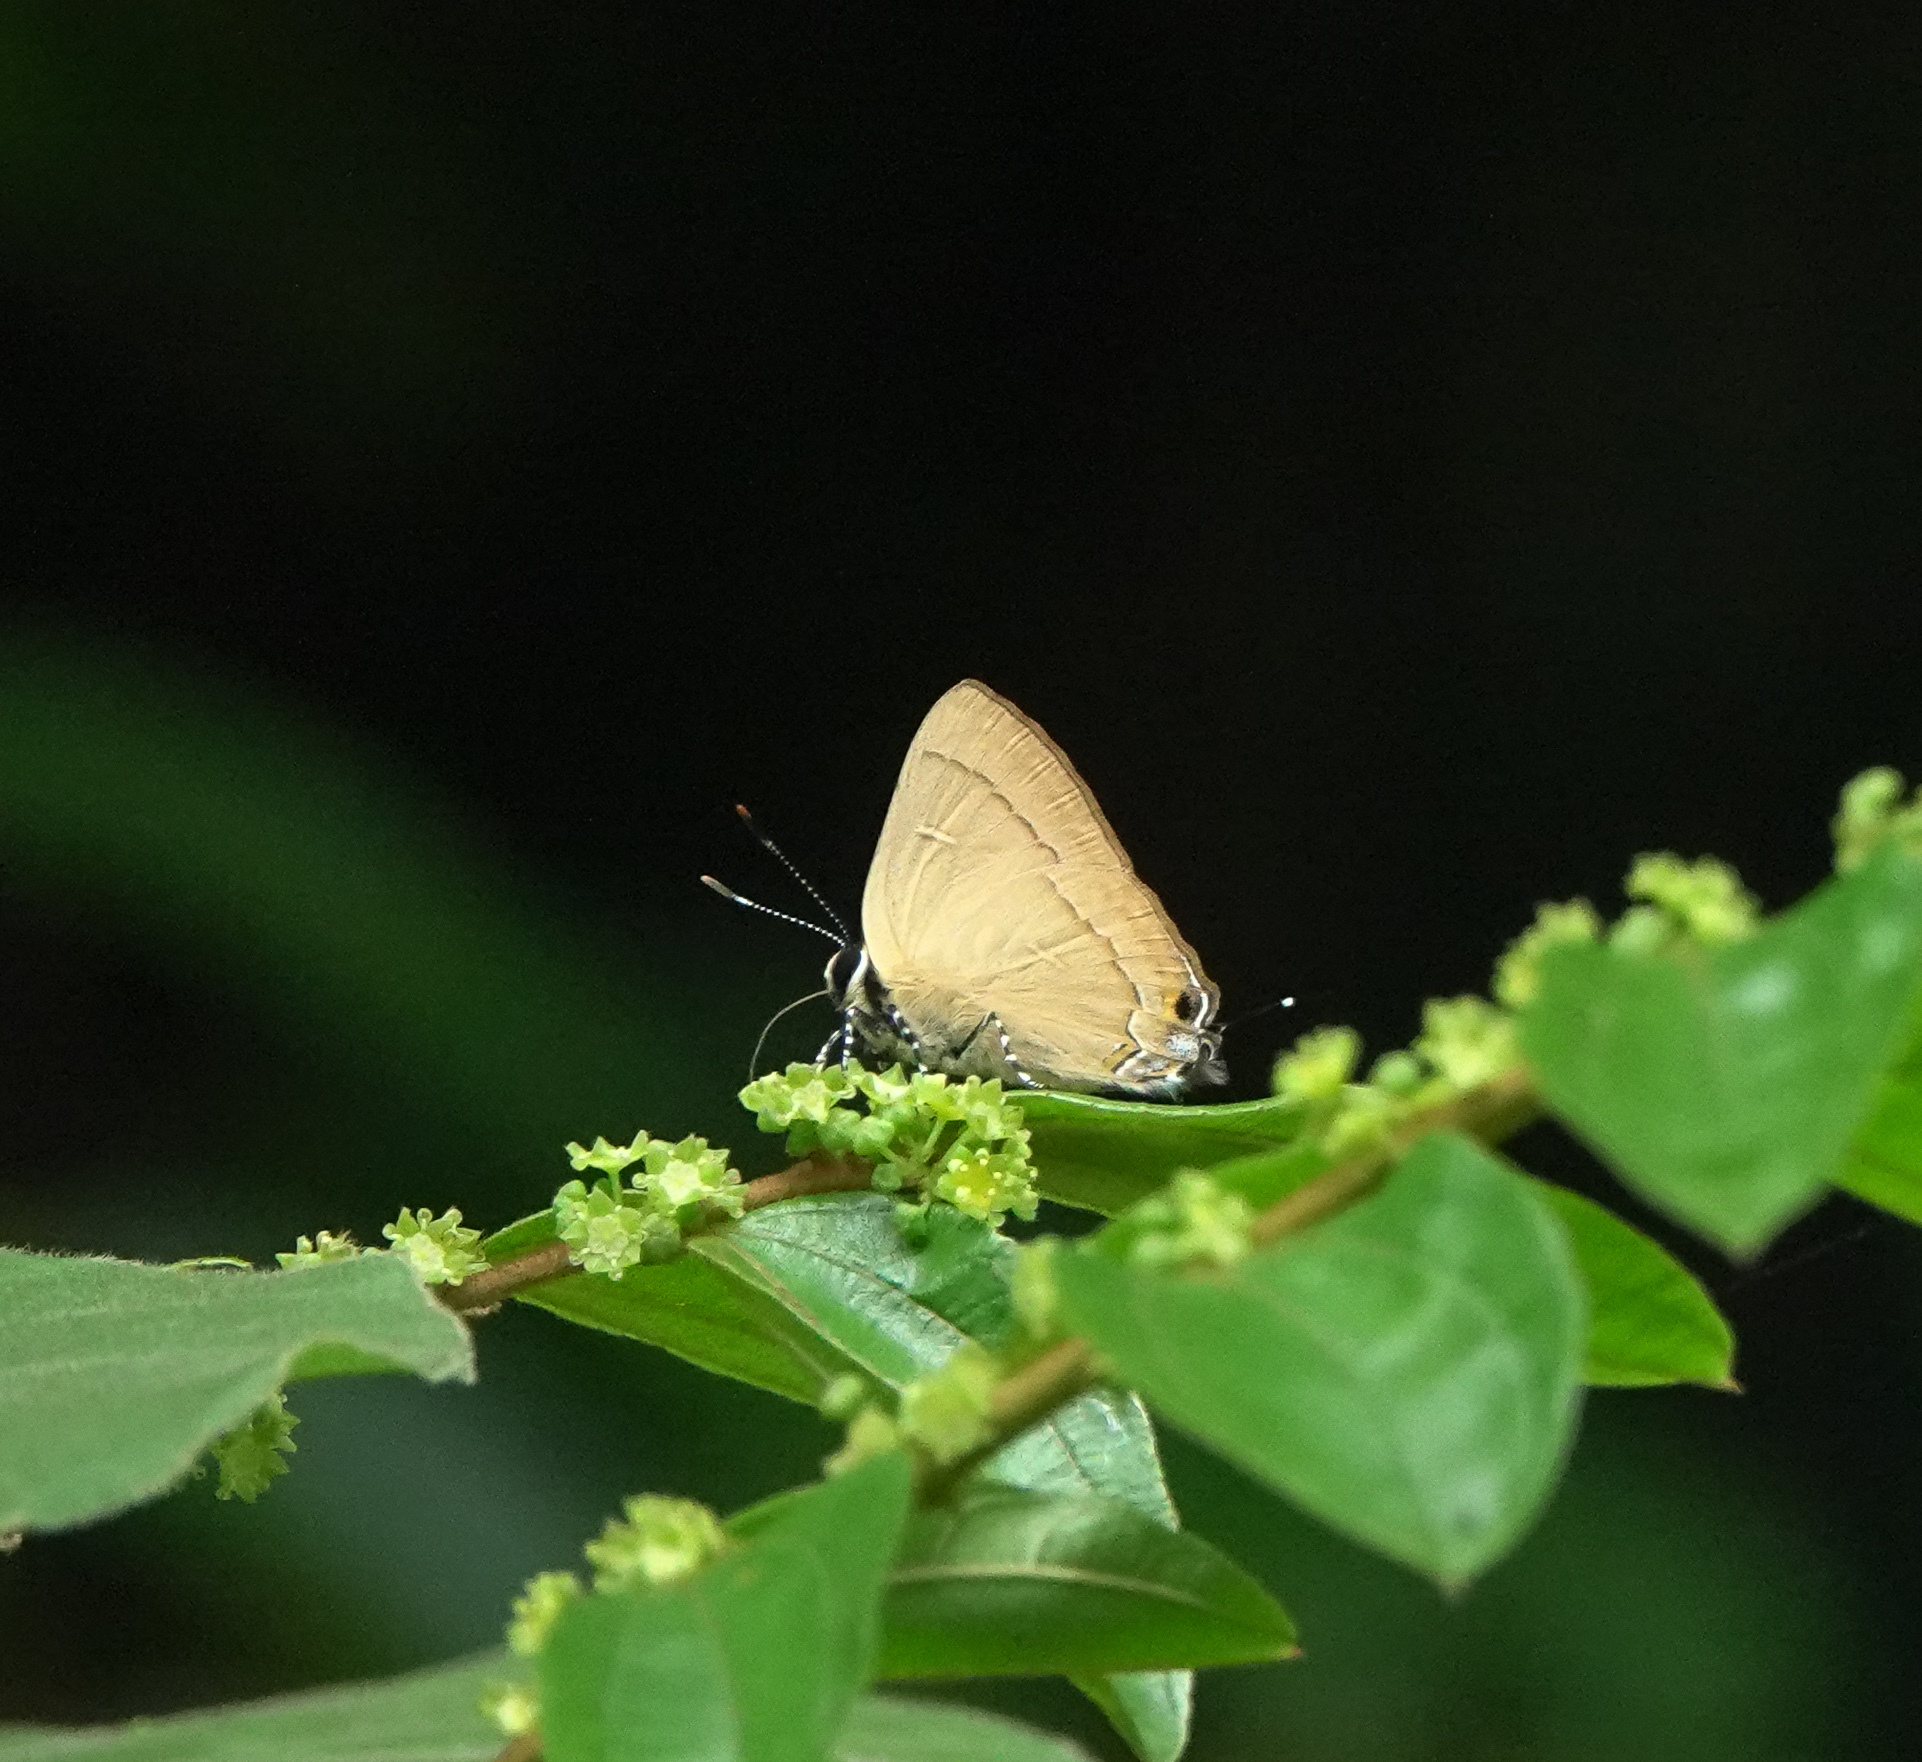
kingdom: Animalia
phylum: Arthropoda
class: Insecta
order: Lepidoptera
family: Lycaenidae
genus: Rapala
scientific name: Rapala manea
